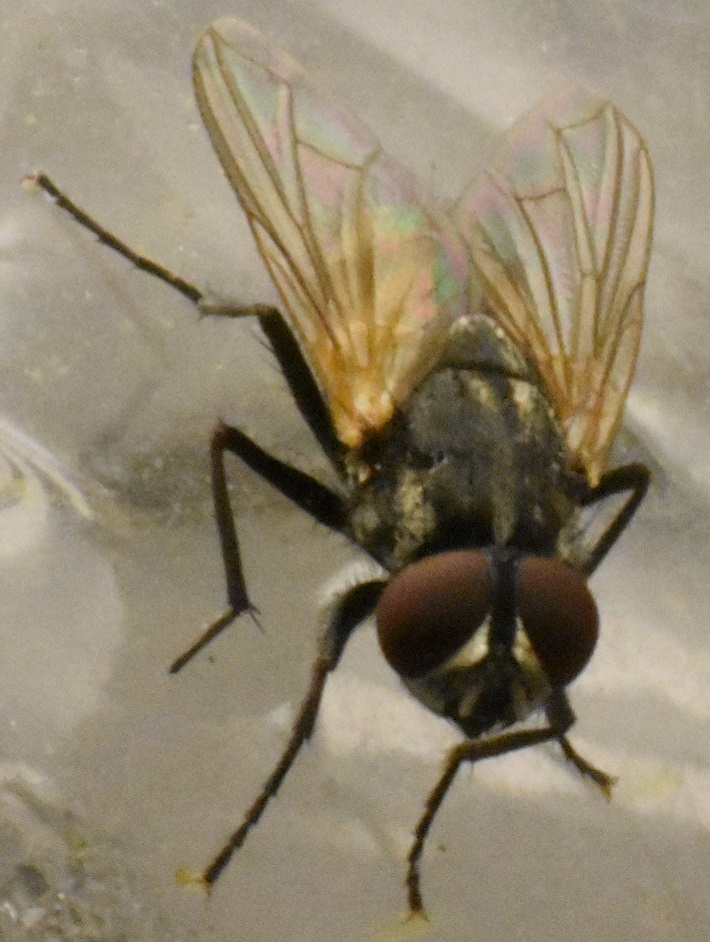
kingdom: Animalia
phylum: Arthropoda
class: Insecta
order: Diptera
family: Muscidae
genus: Musca
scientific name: Musca domestica
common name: House fly
